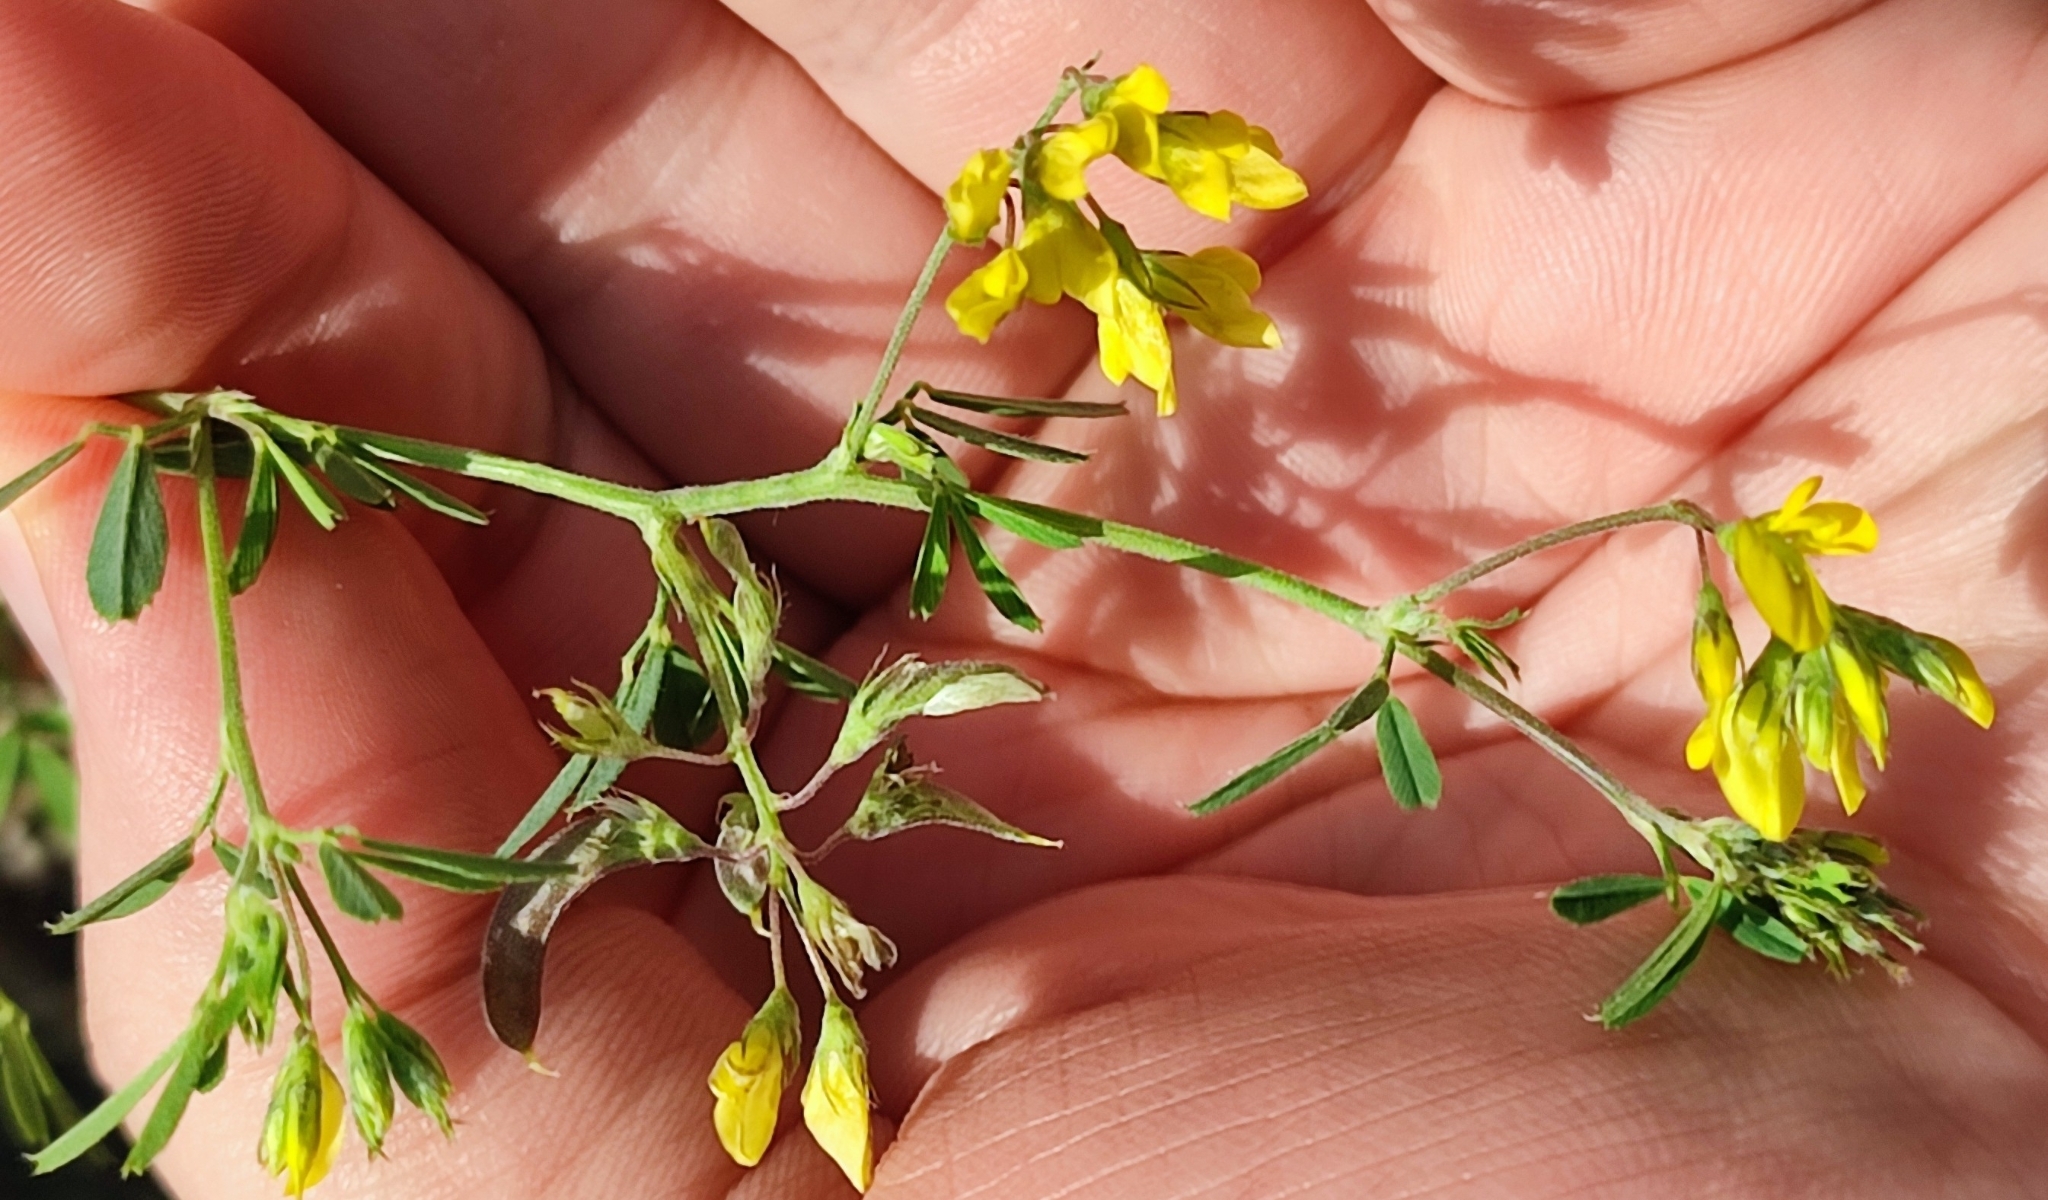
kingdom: Plantae
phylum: Tracheophyta
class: Magnoliopsida
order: Fabales
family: Fabaceae
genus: Medicago
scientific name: Medicago falcata
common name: Sickle medick
